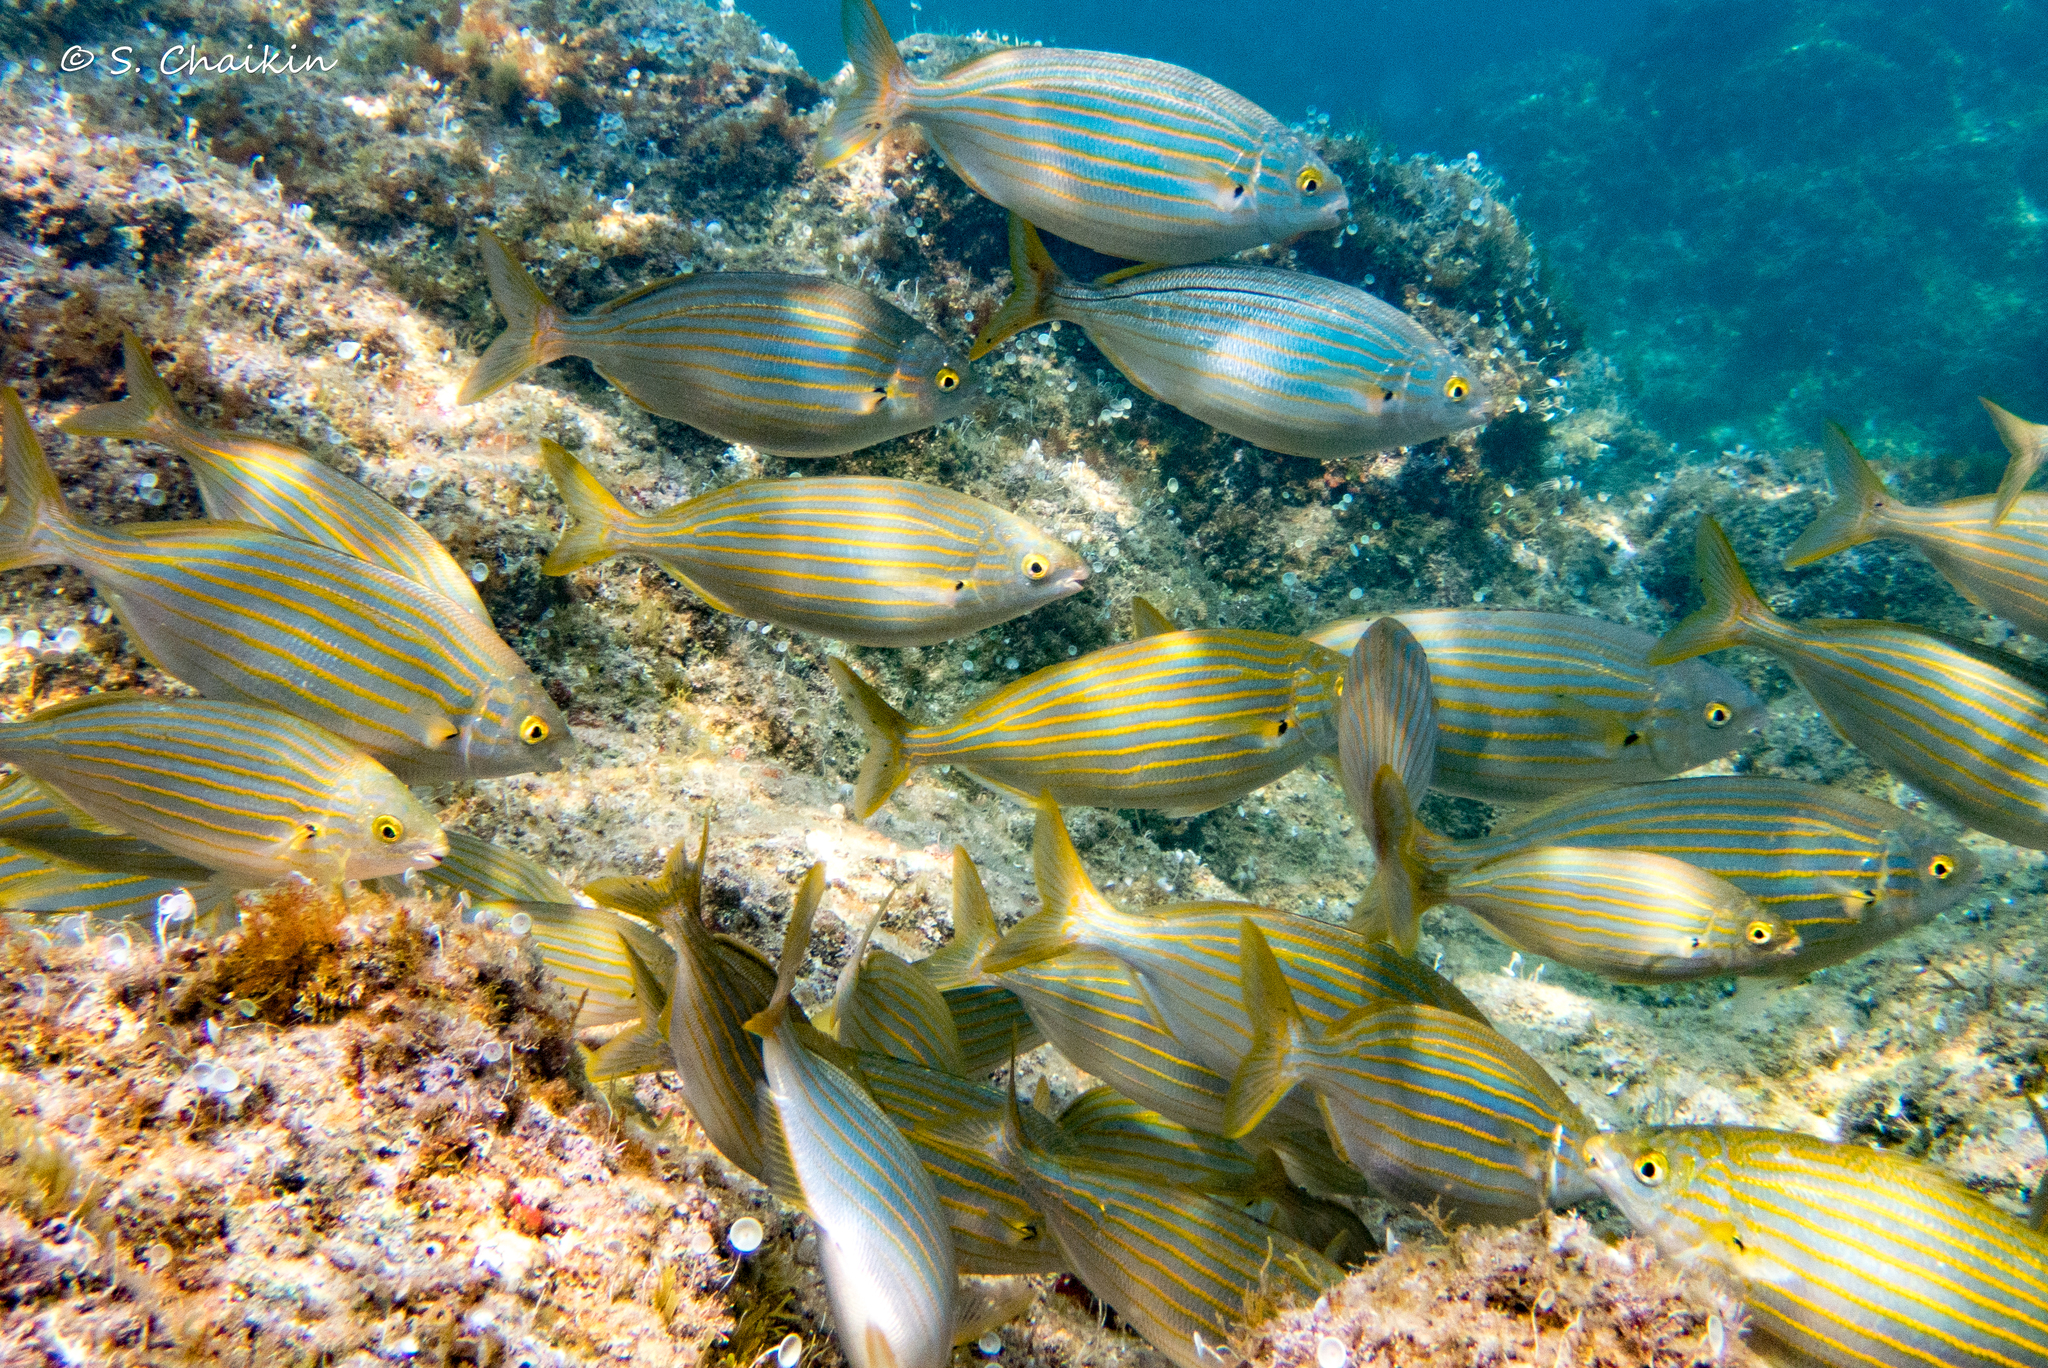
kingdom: Animalia
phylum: Chordata
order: Perciformes
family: Sparidae
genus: Sarpa
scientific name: Sarpa salpa
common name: Salema
